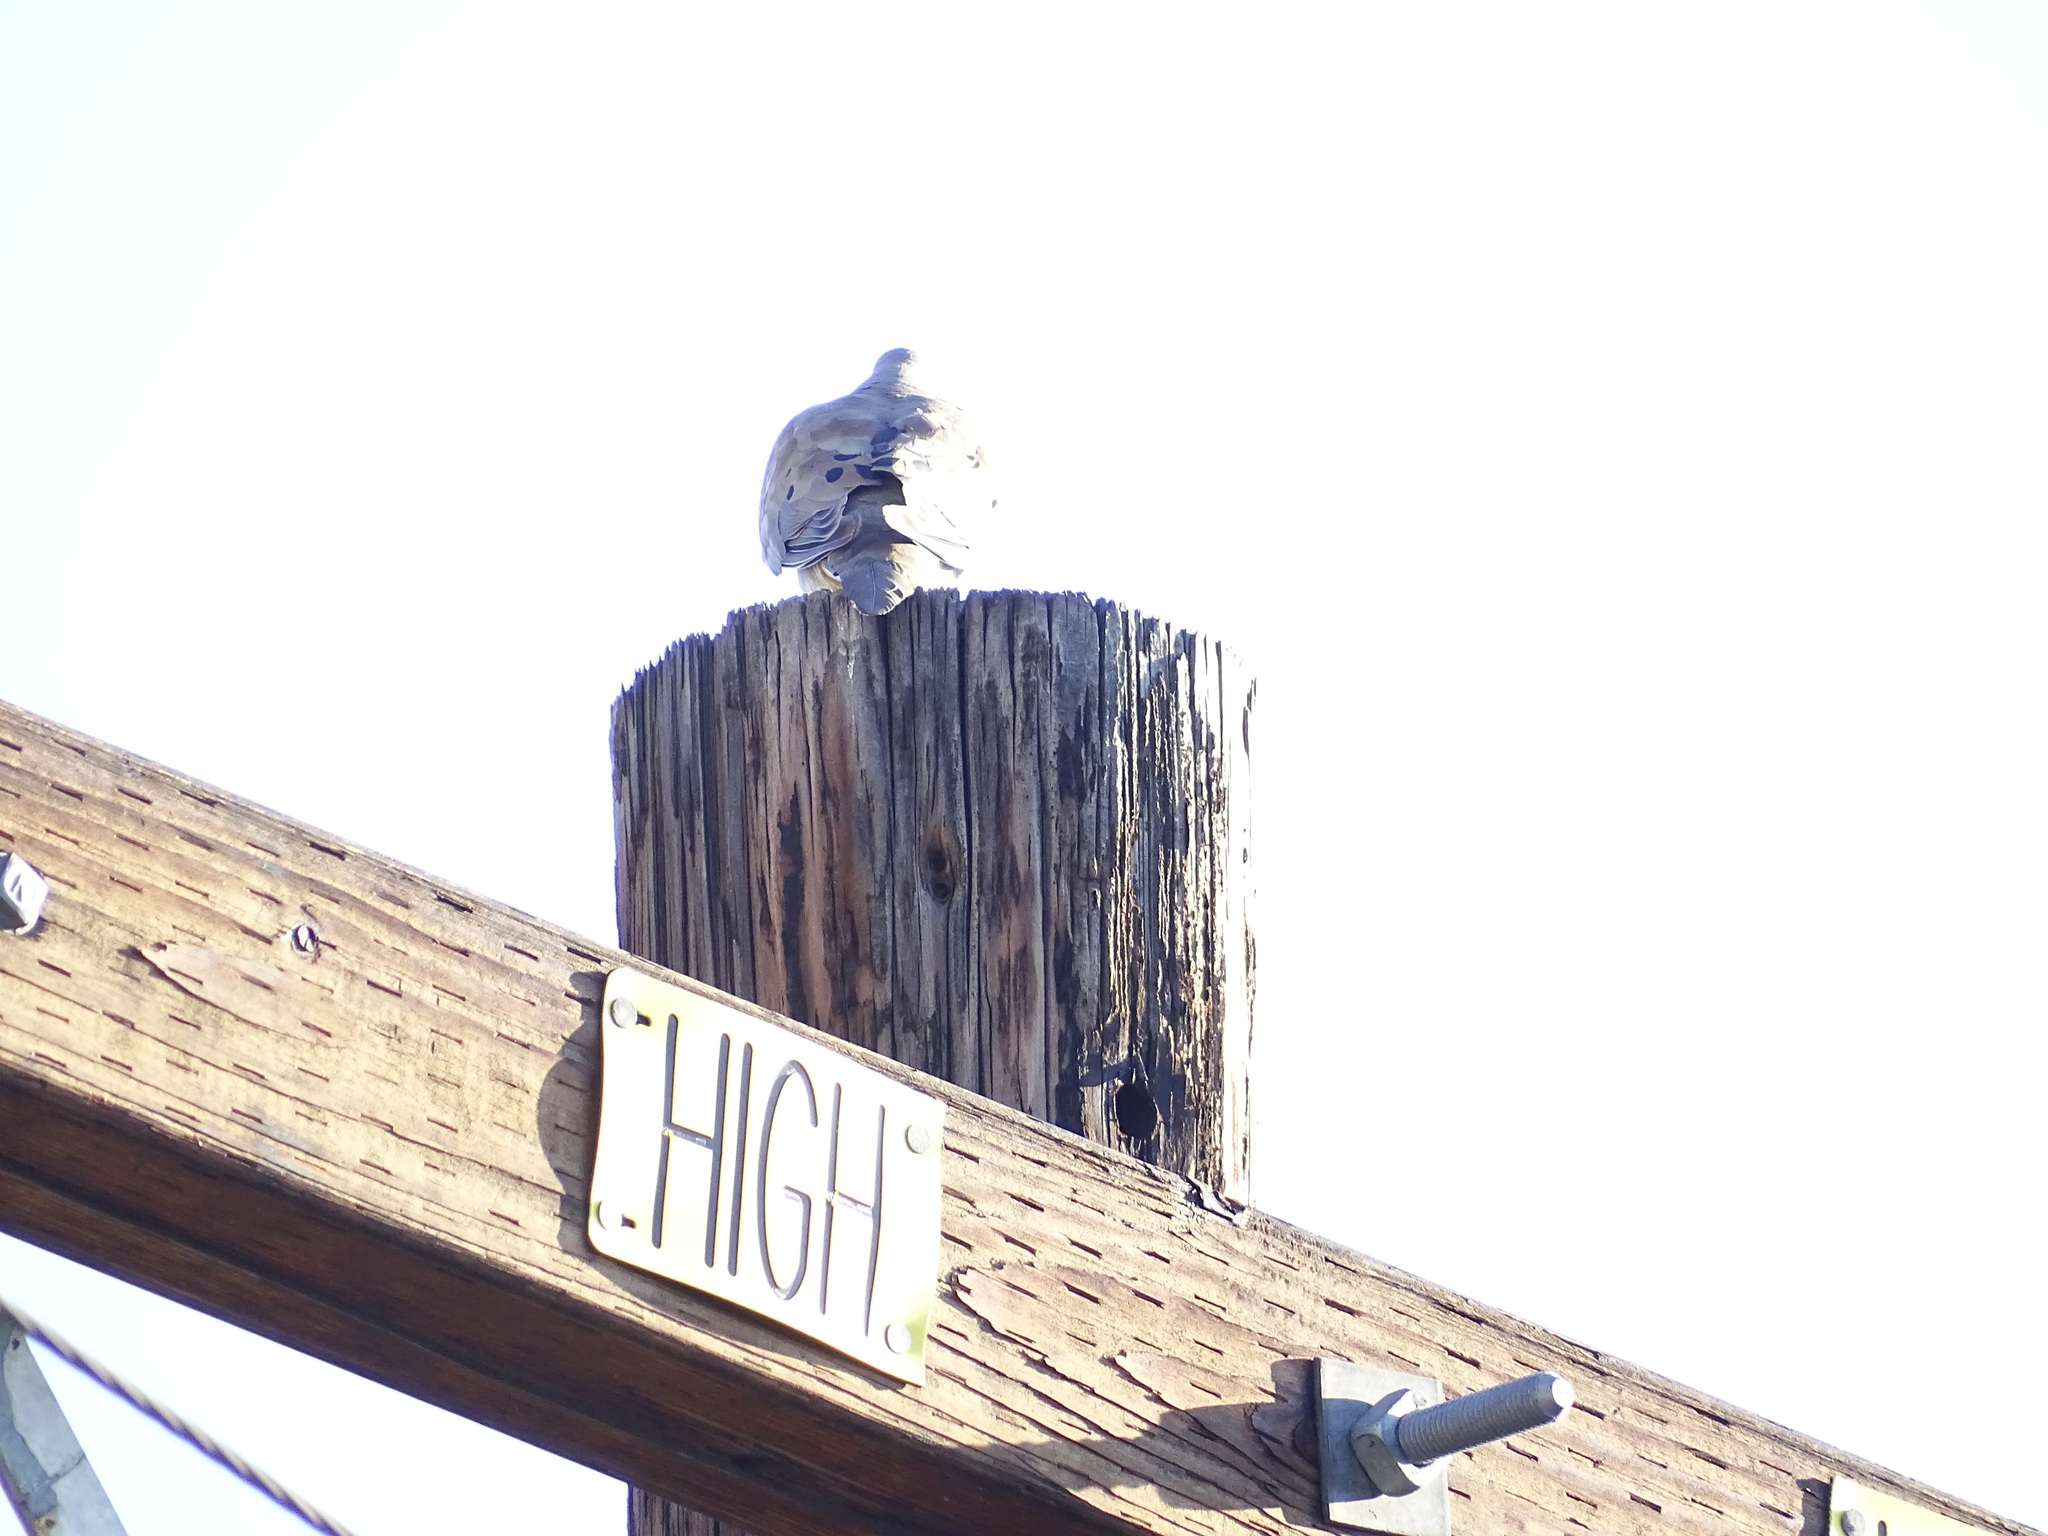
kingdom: Animalia
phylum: Chordata
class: Aves
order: Columbiformes
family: Columbidae
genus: Zenaida
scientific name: Zenaida macroura
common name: Mourning dove
